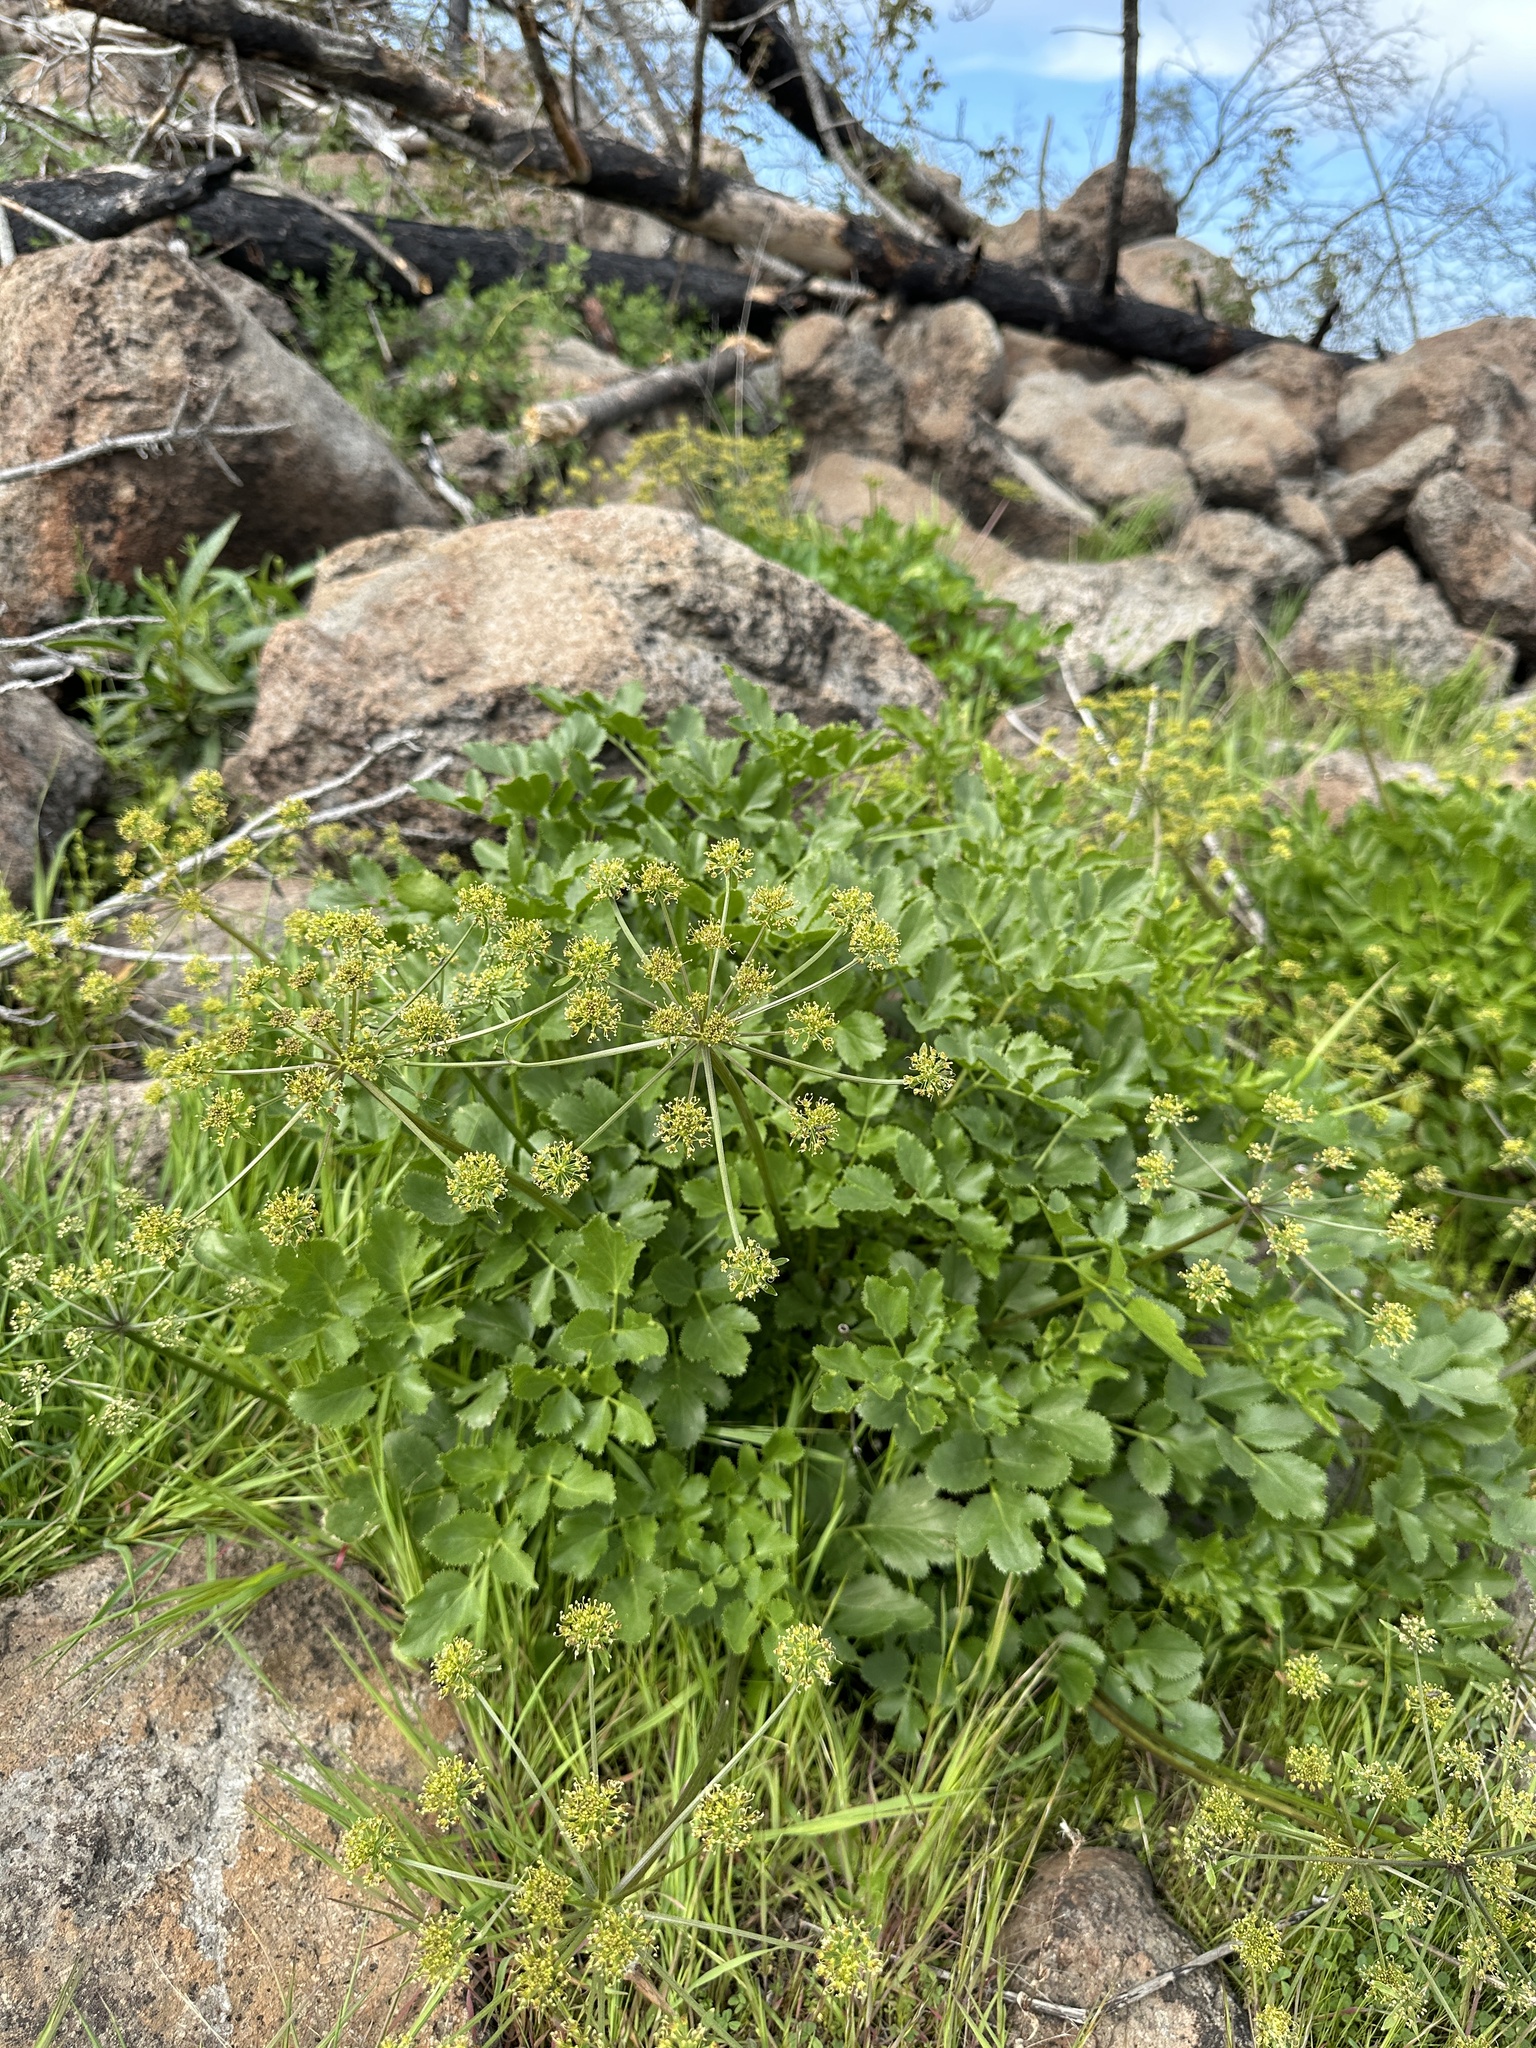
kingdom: Plantae
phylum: Tracheophyta
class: Magnoliopsida
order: Apiales
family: Apiaceae
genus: Tauschia
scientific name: Tauschia hartwegii
